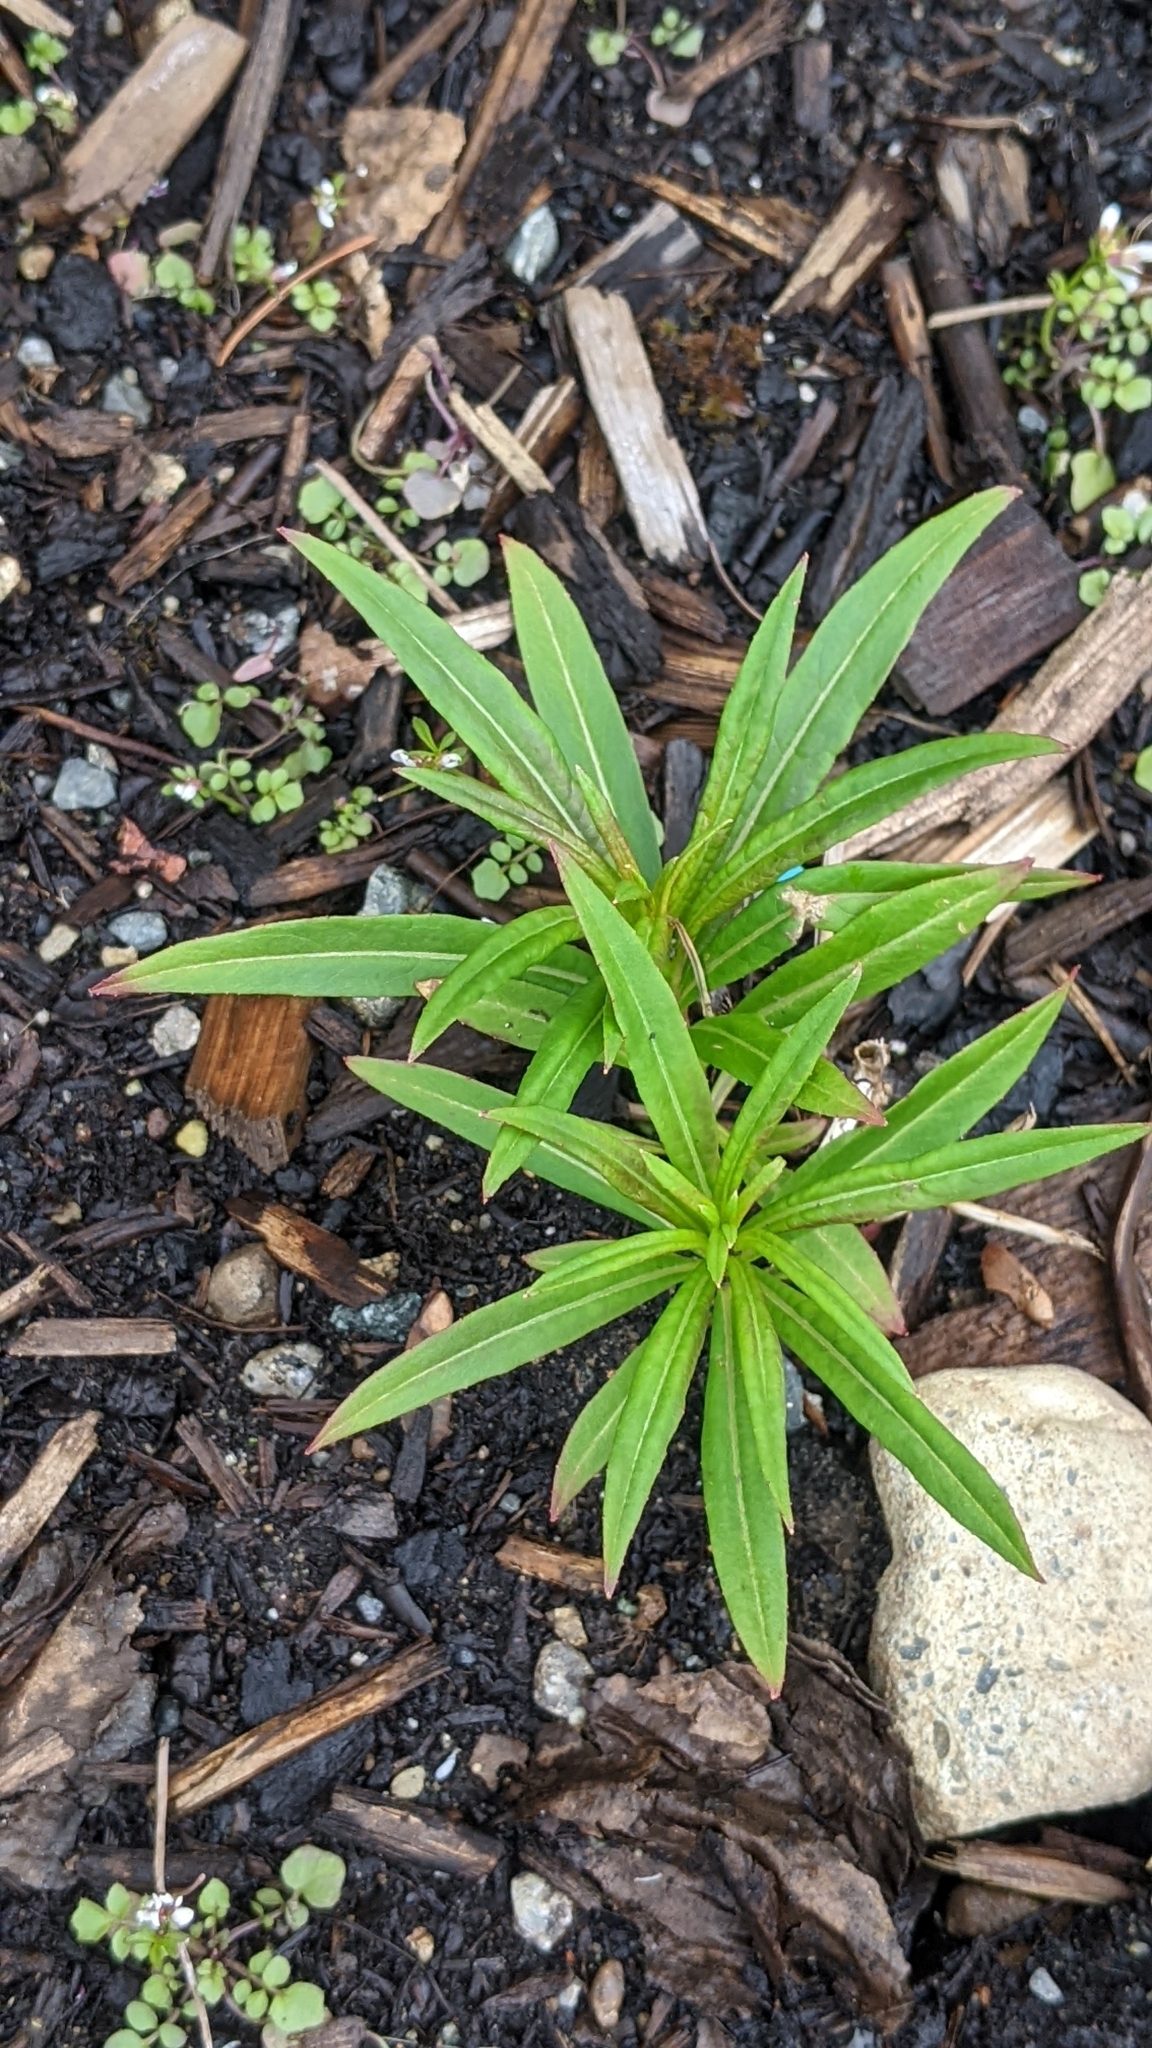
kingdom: Plantae
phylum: Tracheophyta
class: Magnoliopsida
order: Myrtales
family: Onagraceae
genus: Chamaenerion
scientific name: Chamaenerion angustifolium
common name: Fireweed
